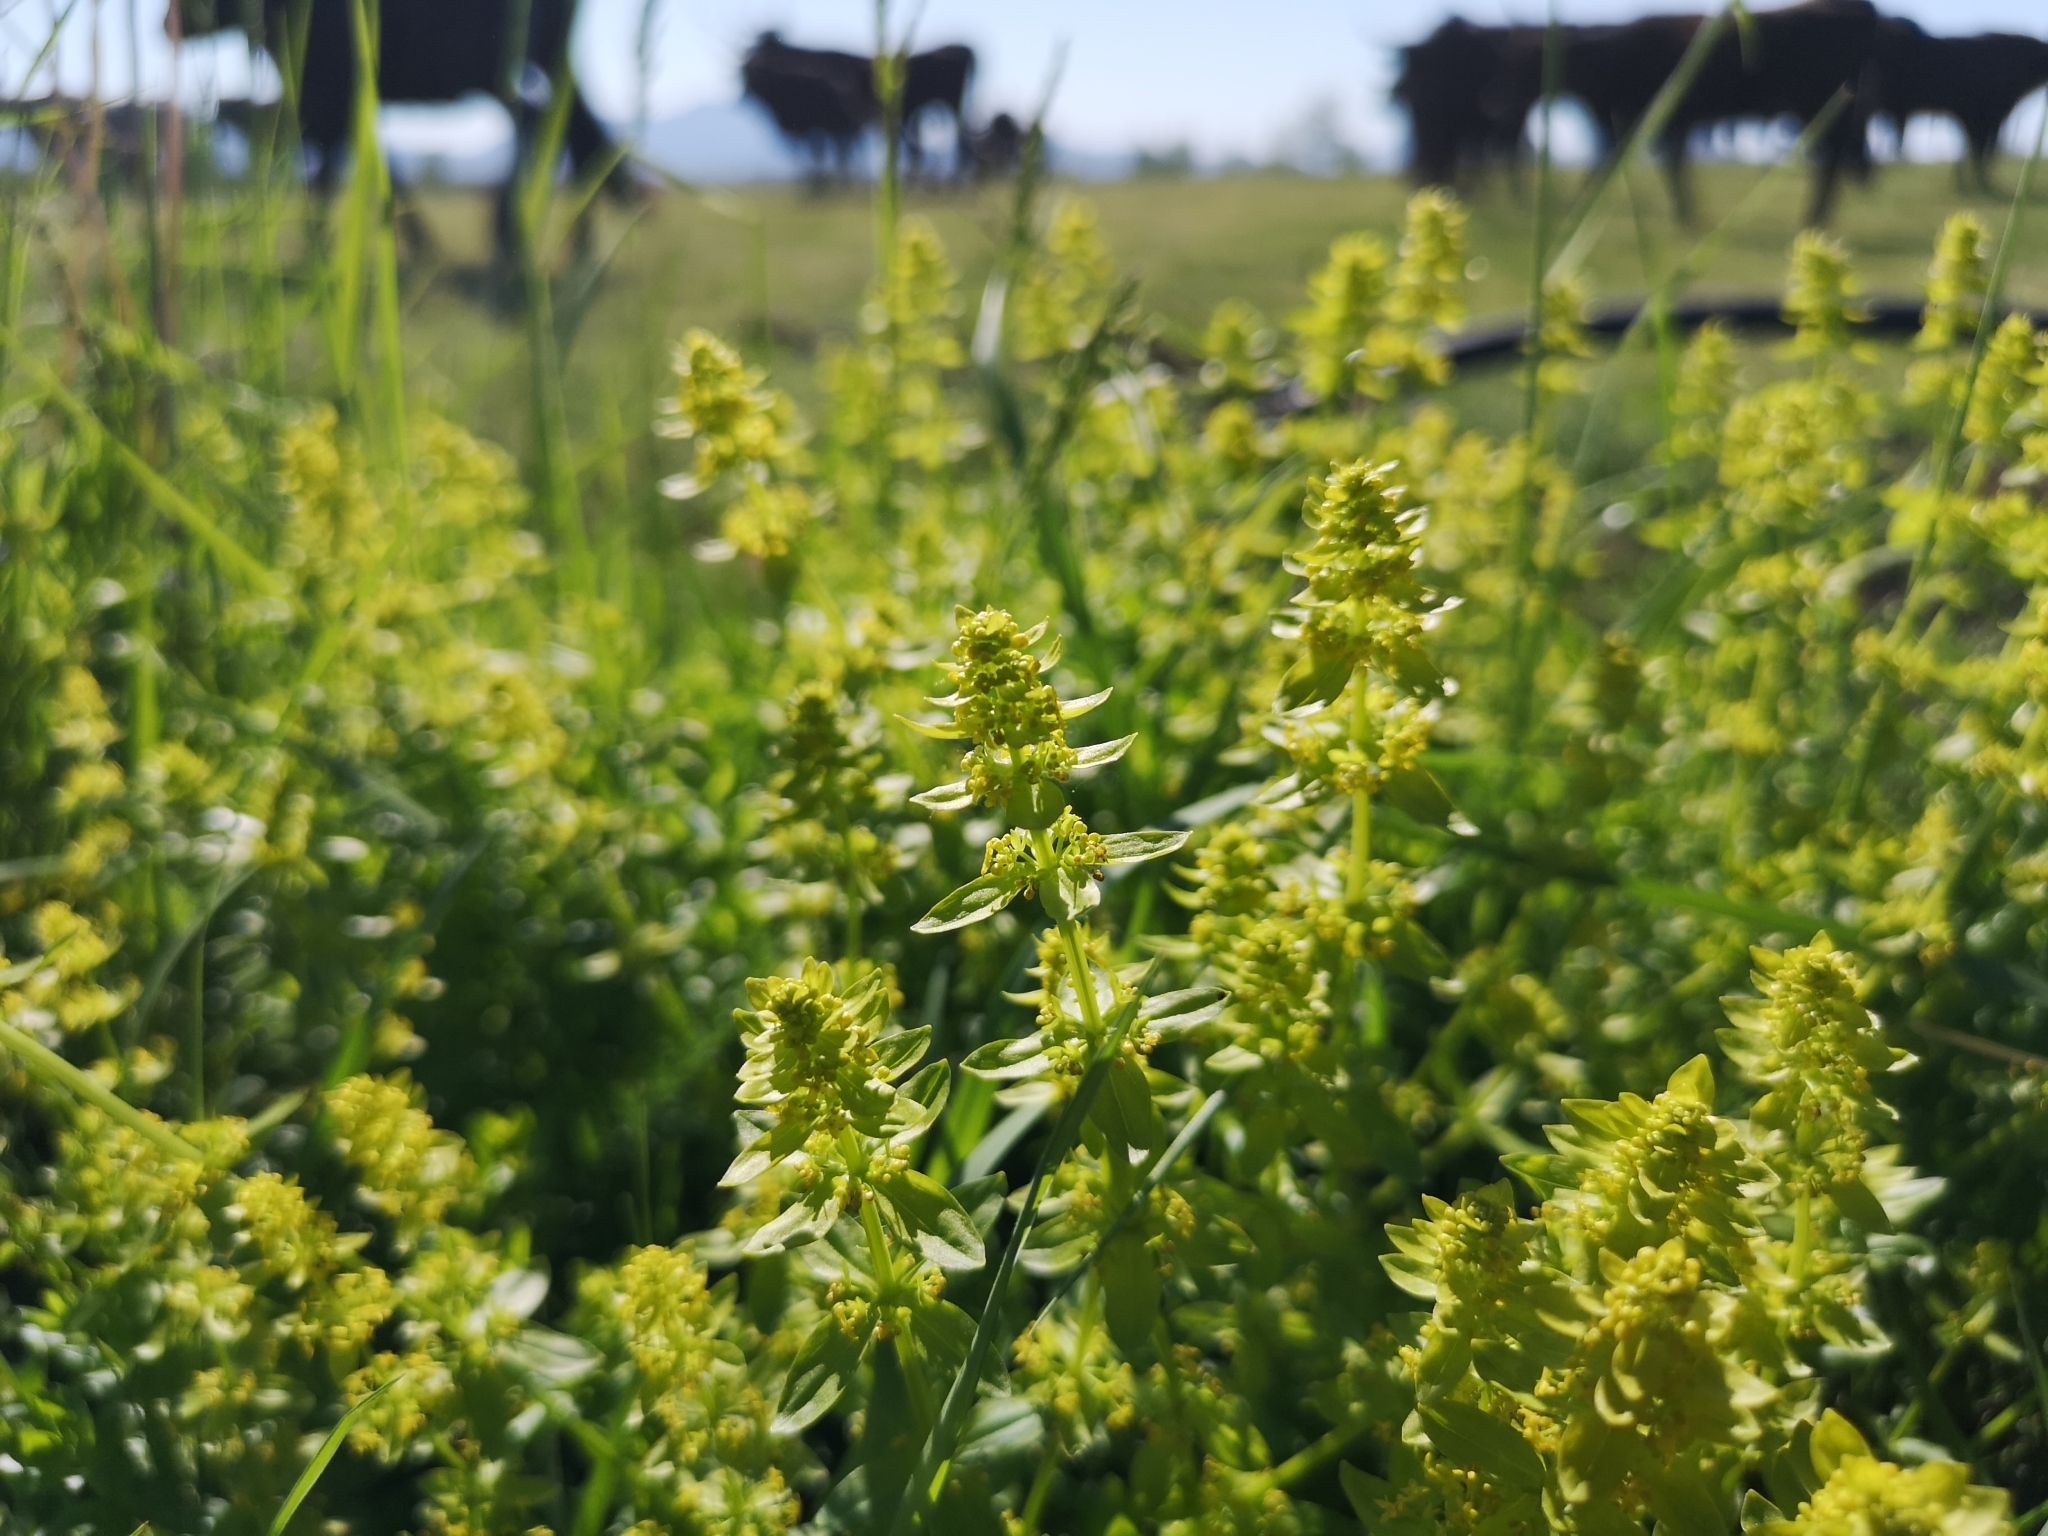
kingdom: Plantae
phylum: Tracheophyta
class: Magnoliopsida
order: Gentianales
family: Rubiaceae
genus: Cruciata
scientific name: Cruciata laevipes
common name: Crosswort
